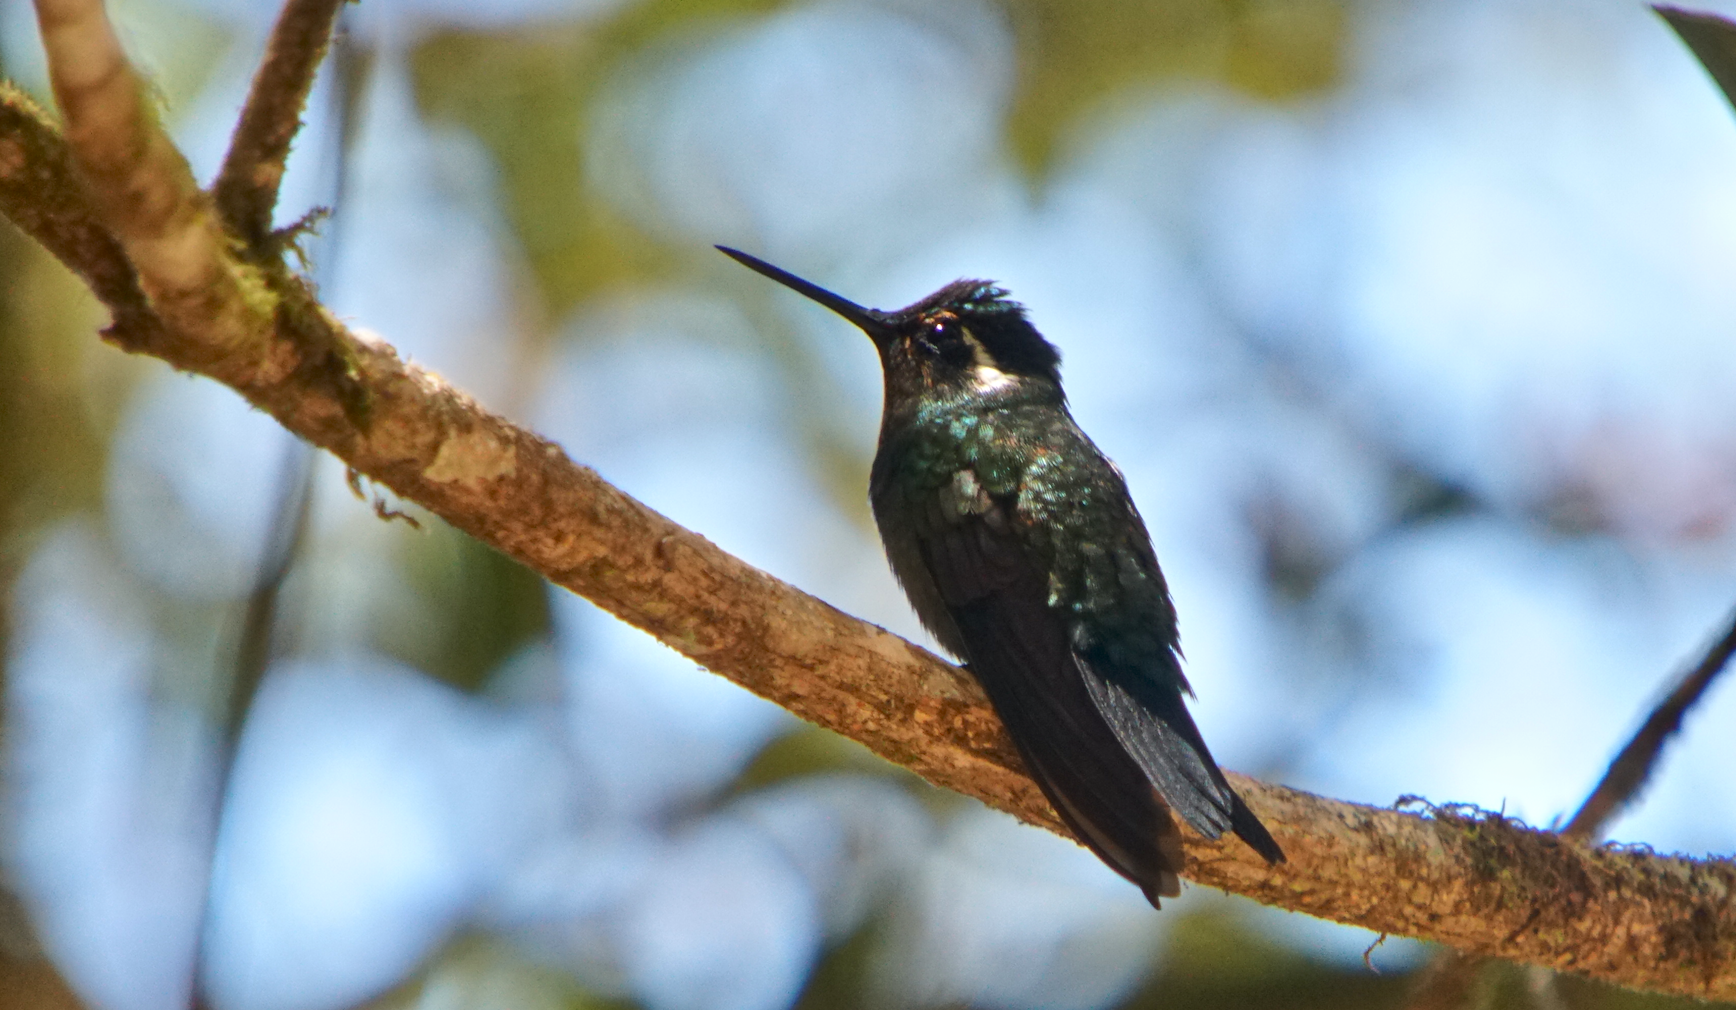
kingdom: Animalia
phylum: Chordata
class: Aves
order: Apodiformes
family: Trochilidae
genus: Lampornis
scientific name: Lampornis calolaemus
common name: Purple-throated mountain-gem
